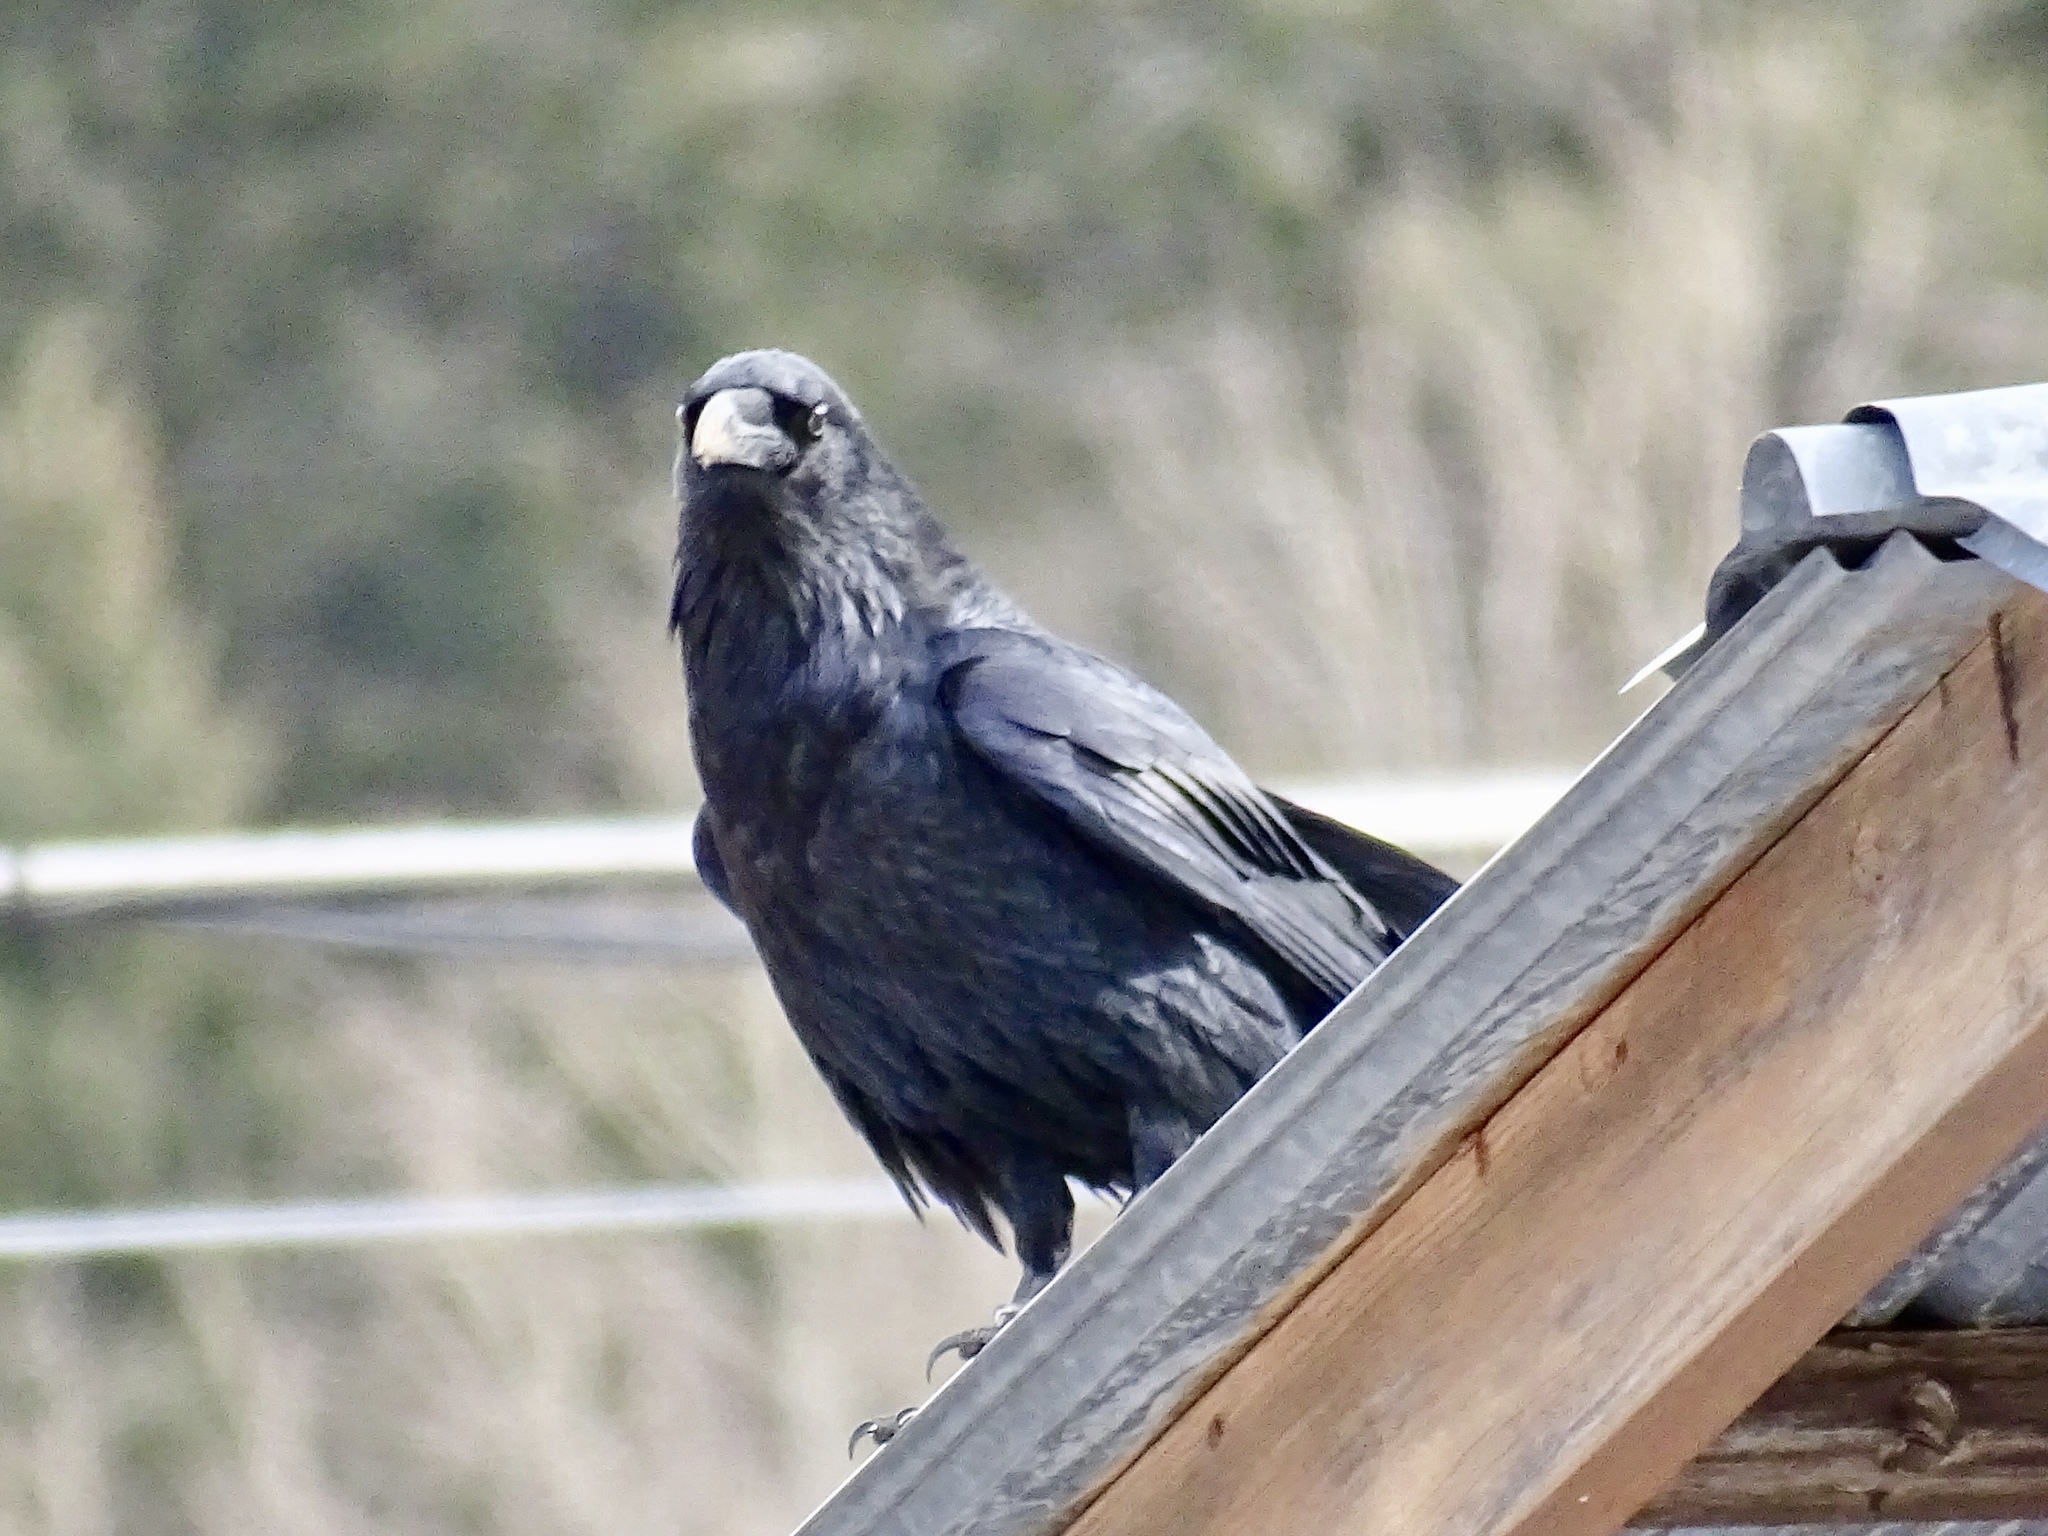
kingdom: Animalia
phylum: Chordata
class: Aves
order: Passeriformes
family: Corvidae
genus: Corvus
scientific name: Corvus corax
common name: Common raven
